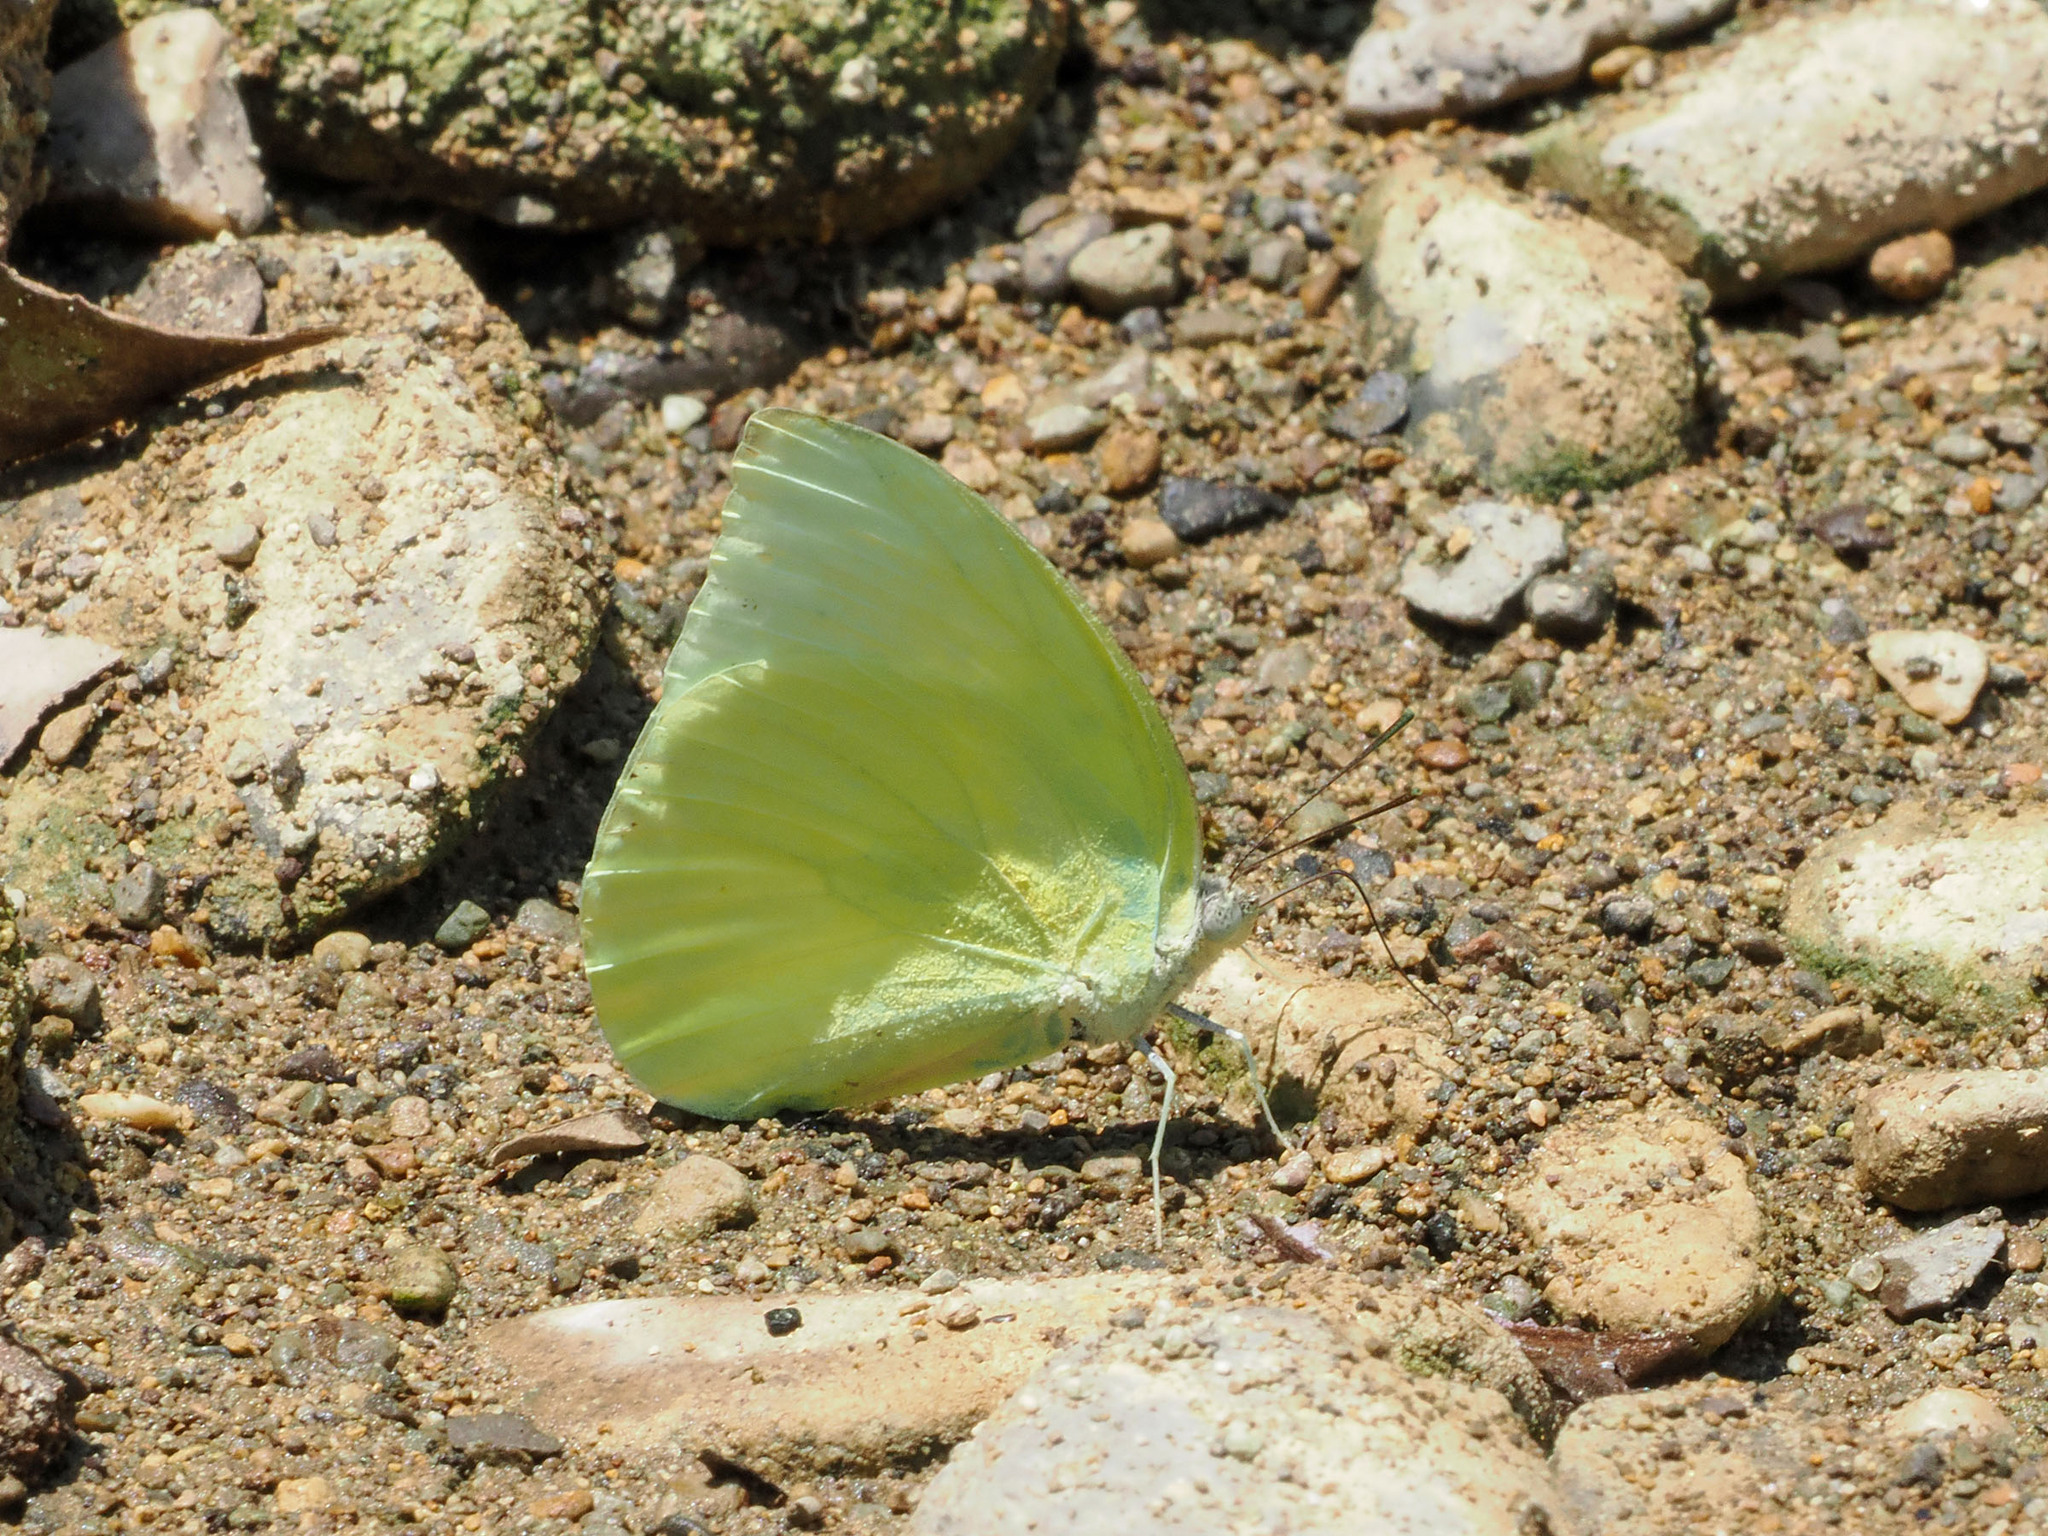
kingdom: Animalia
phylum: Arthropoda
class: Insecta
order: Lepidoptera
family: Pieridae
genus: Catopsilia
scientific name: Catopsilia pomona
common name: Common emigrant
